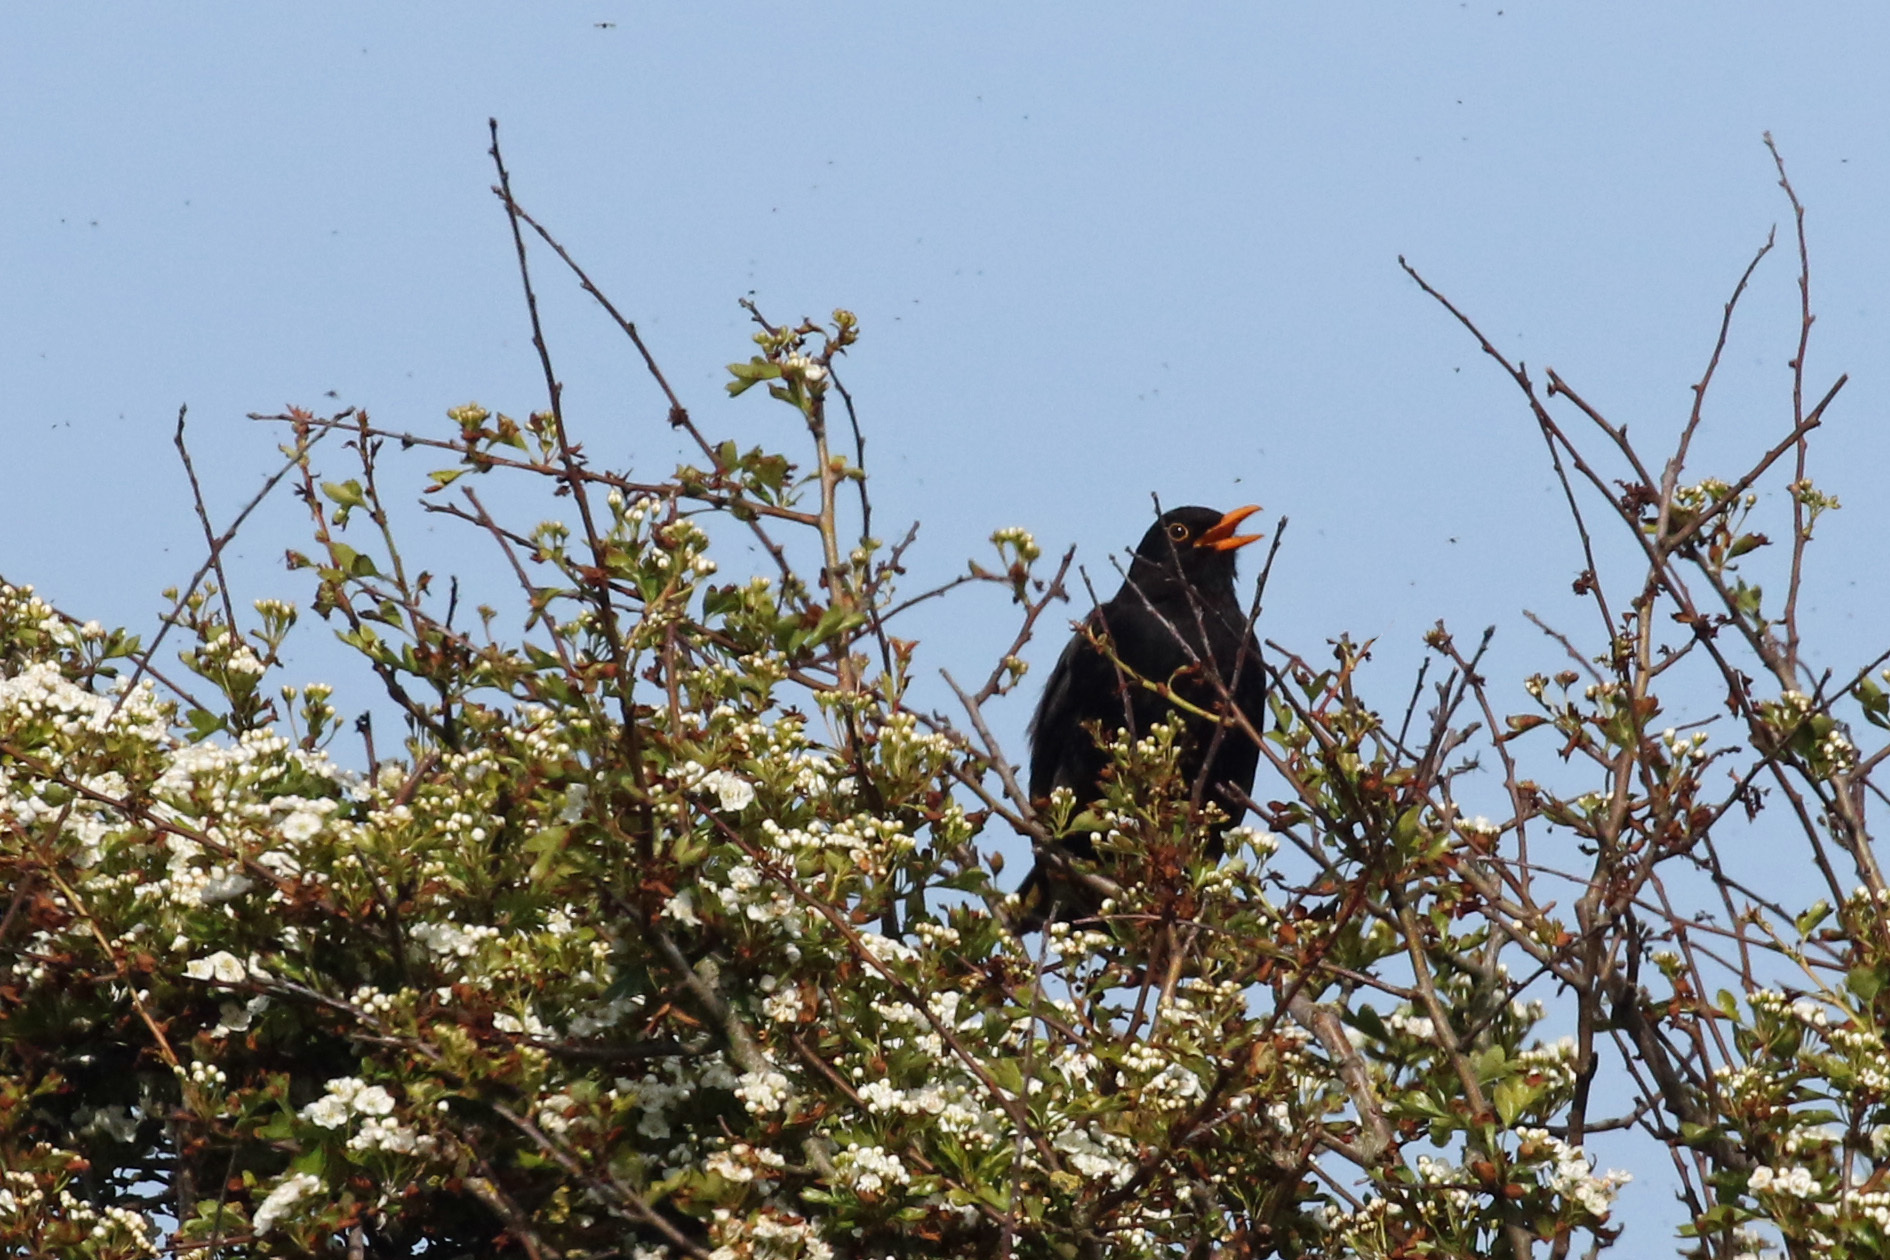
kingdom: Animalia
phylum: Chordata
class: Aves
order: Passeriformes
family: Turdidae
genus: Turdus
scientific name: Turdus merula
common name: Common blackbird
